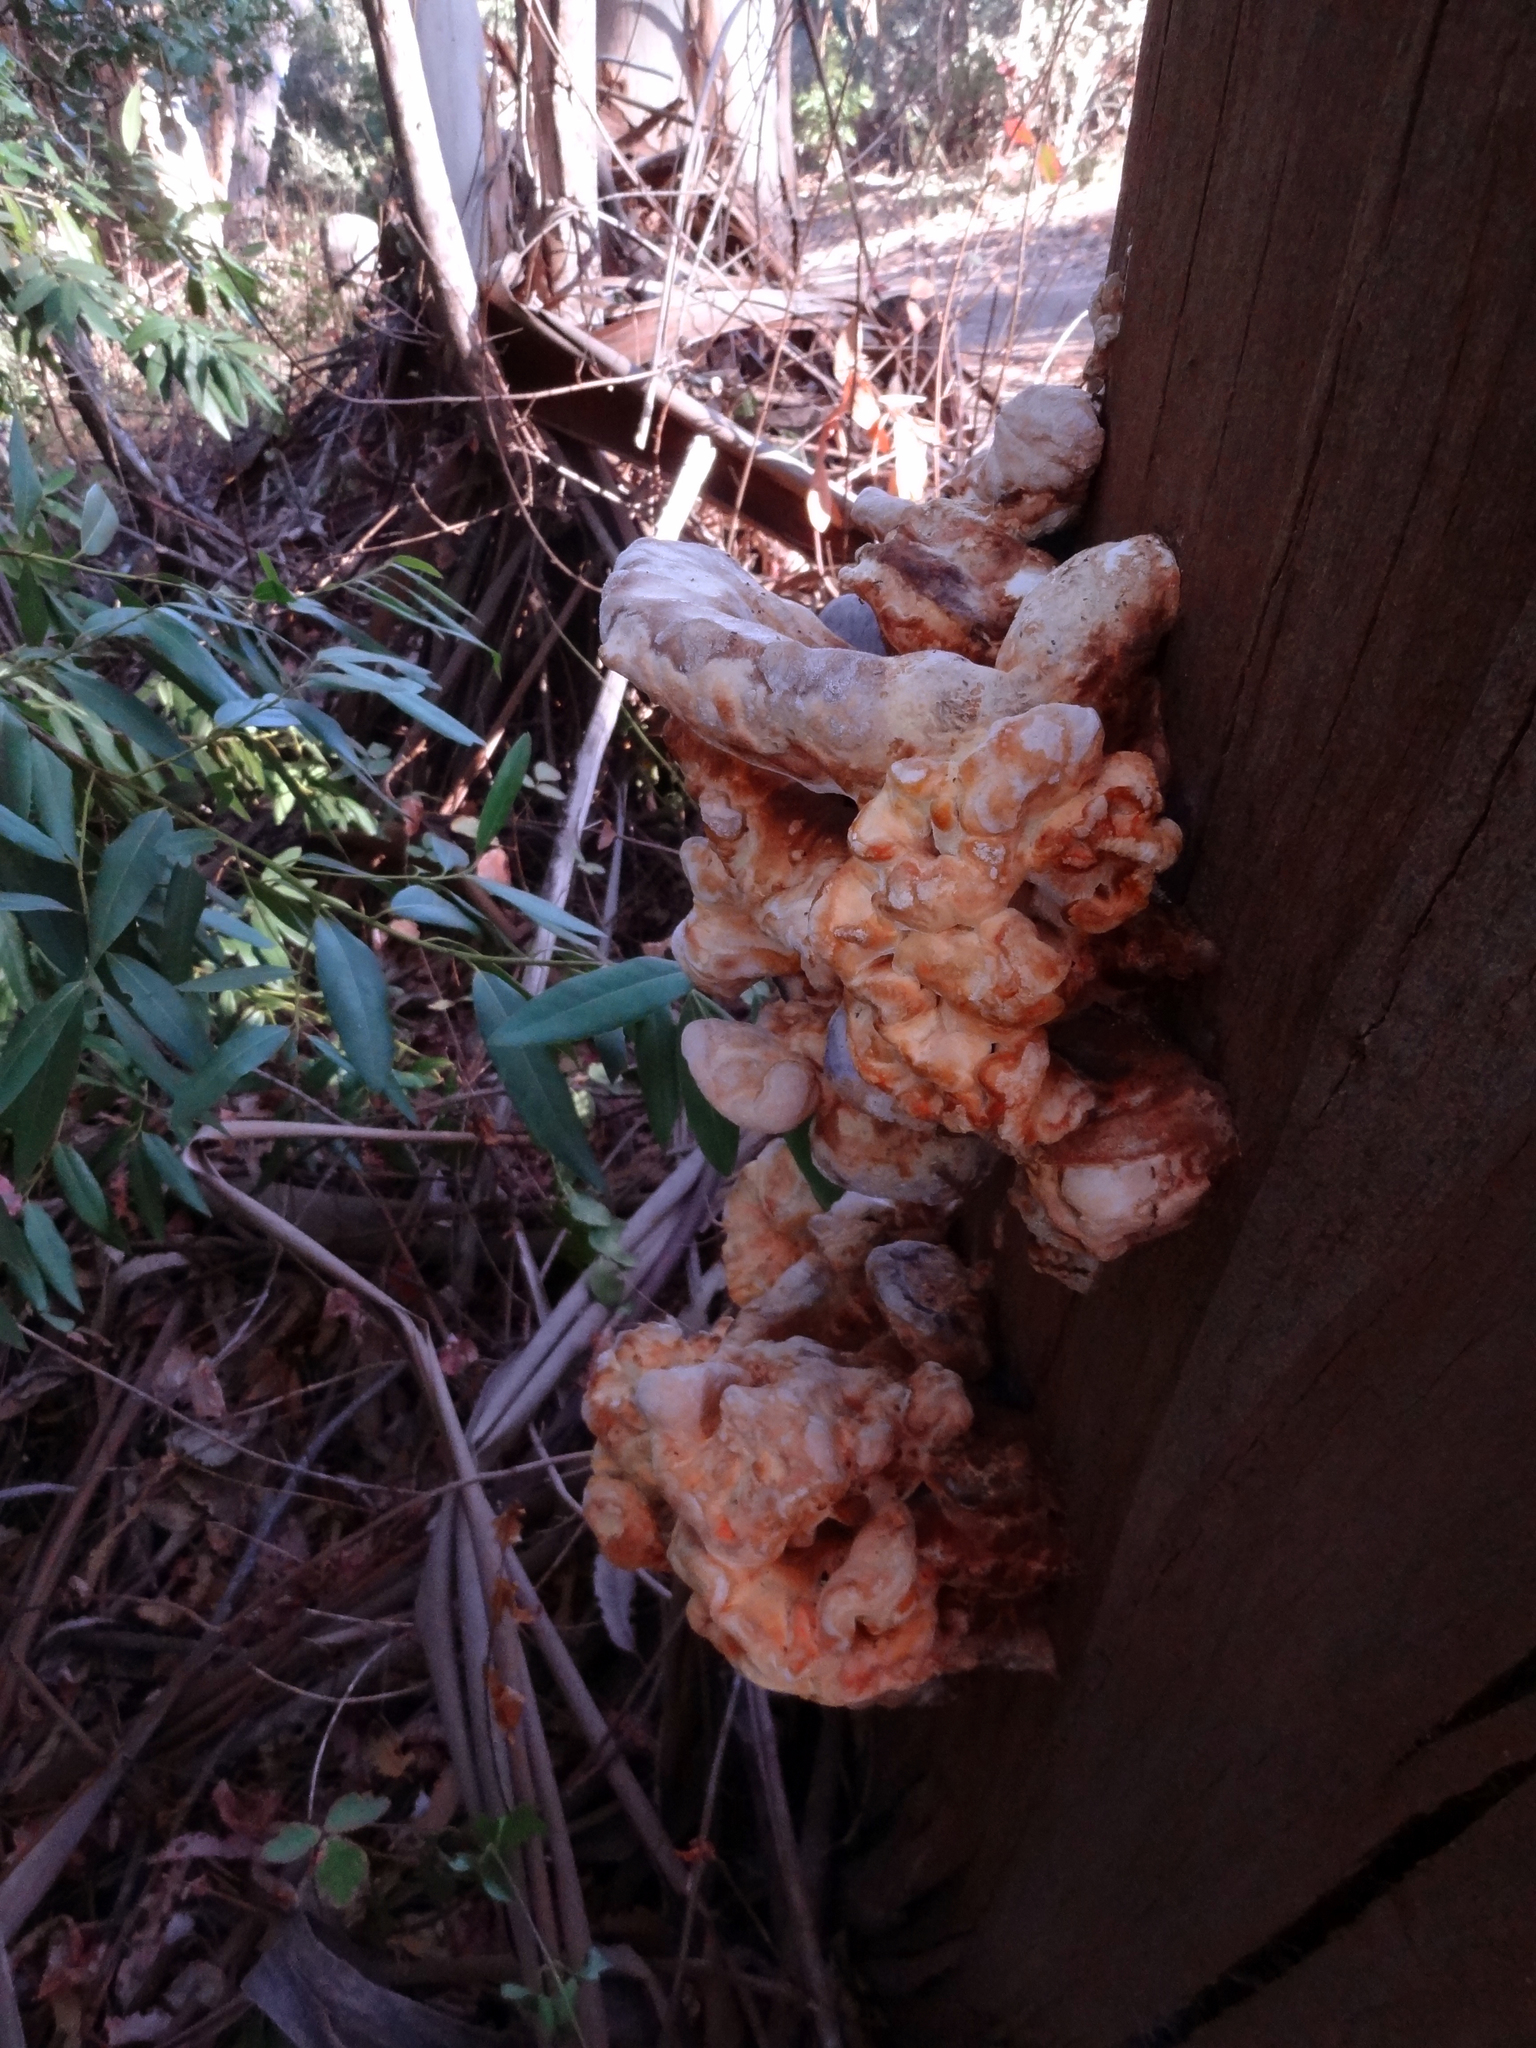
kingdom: Fungi
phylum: Basidiomycota
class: Agaricomycetes
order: Polyporales
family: Laetiporaceae
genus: Laetiporus
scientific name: Laetiporus gilbertsonii
